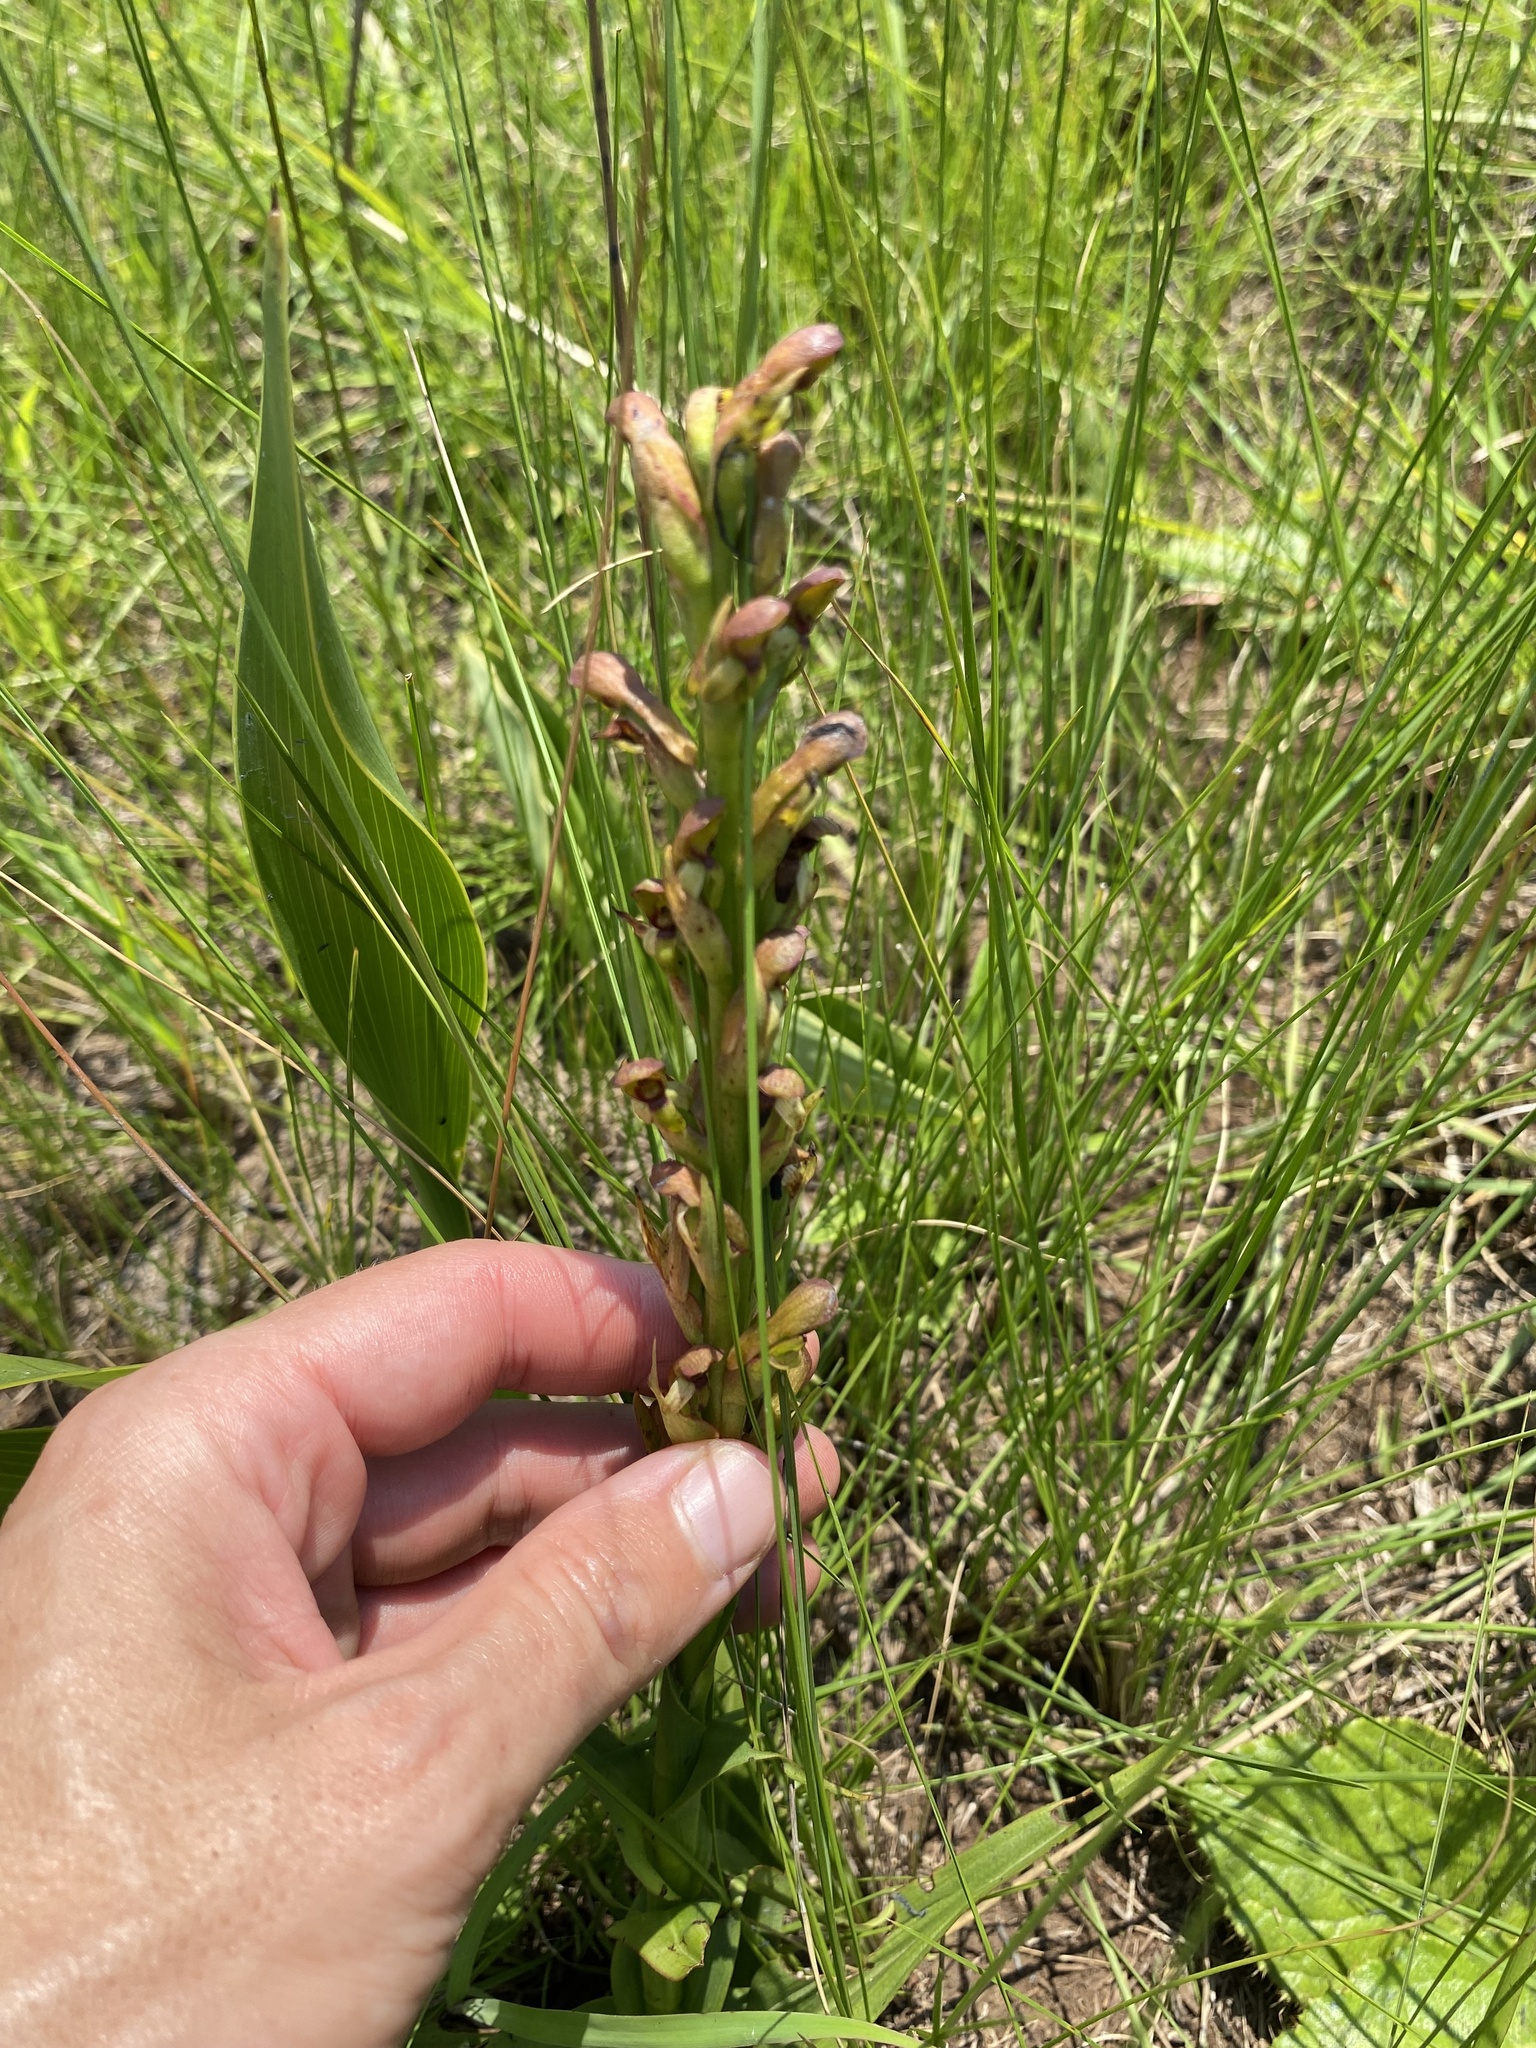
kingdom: Plantae
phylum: Tracheophyta
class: Liliopsida
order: Asparagales
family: Orchidaceae
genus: Disa
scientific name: Disa brevicornis
